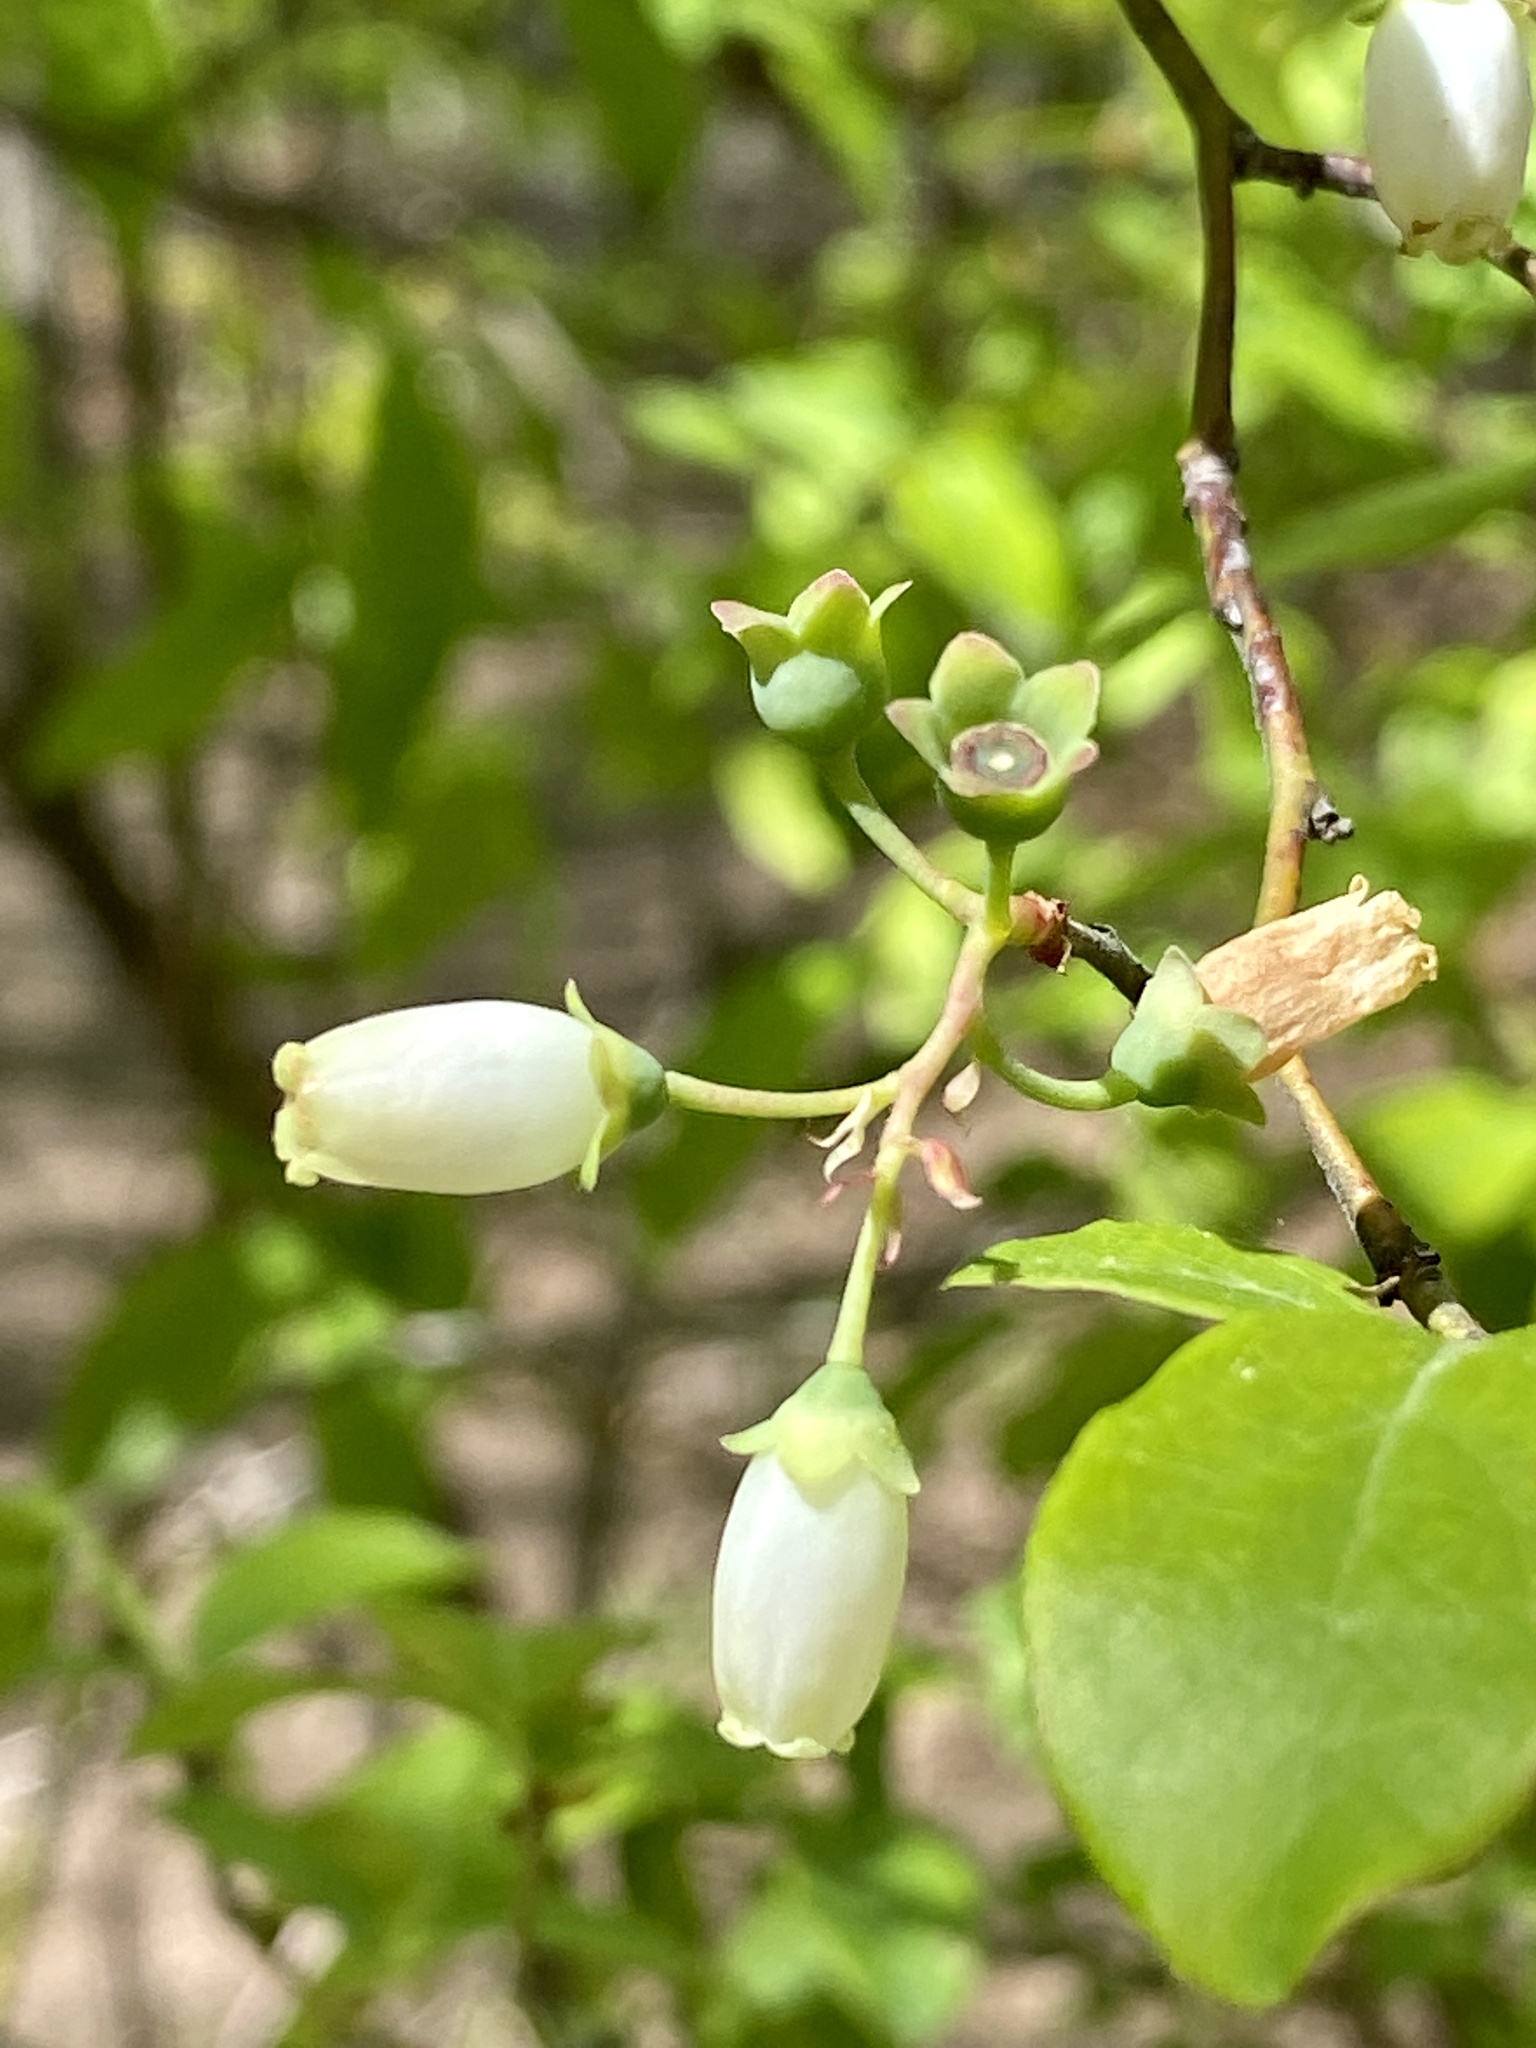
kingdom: Plantae
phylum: Tracheophyta
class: Magnoliopsida
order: Ericales
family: Ericaceae
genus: Vaccinium
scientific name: Vaccinium corymbosum
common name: Blueberry
